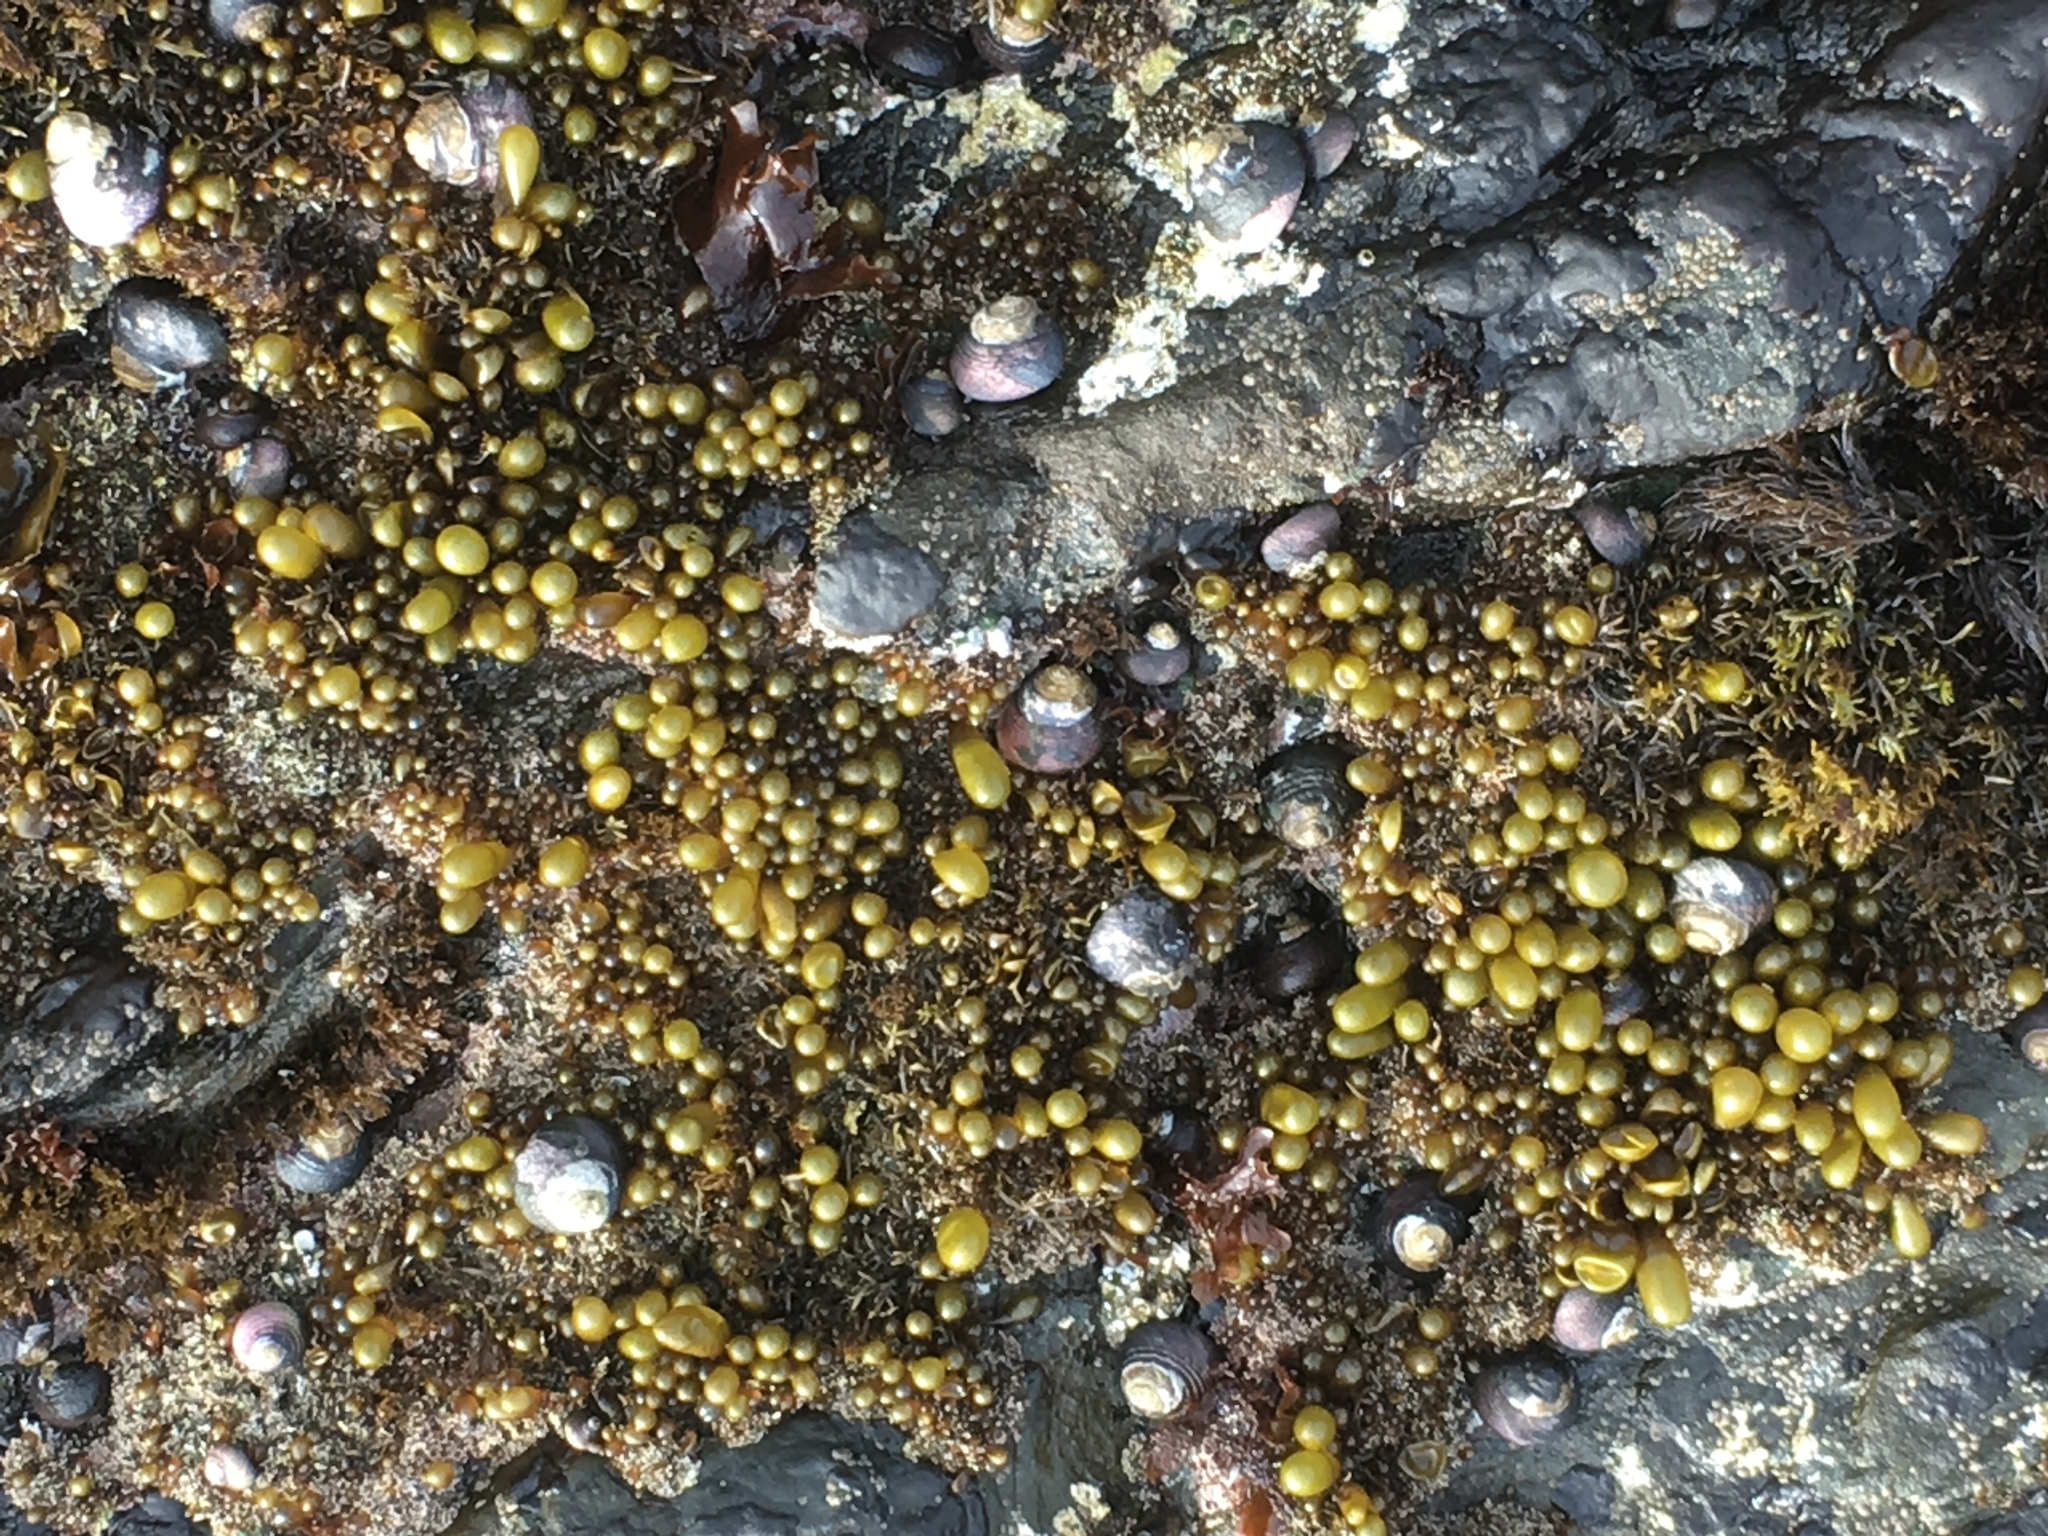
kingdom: Plantae
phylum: Rhodophyta
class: Florideophyceae
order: Palmariales
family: Palmariaceae
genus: Halosaccion
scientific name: Halosaccion glandiforme
